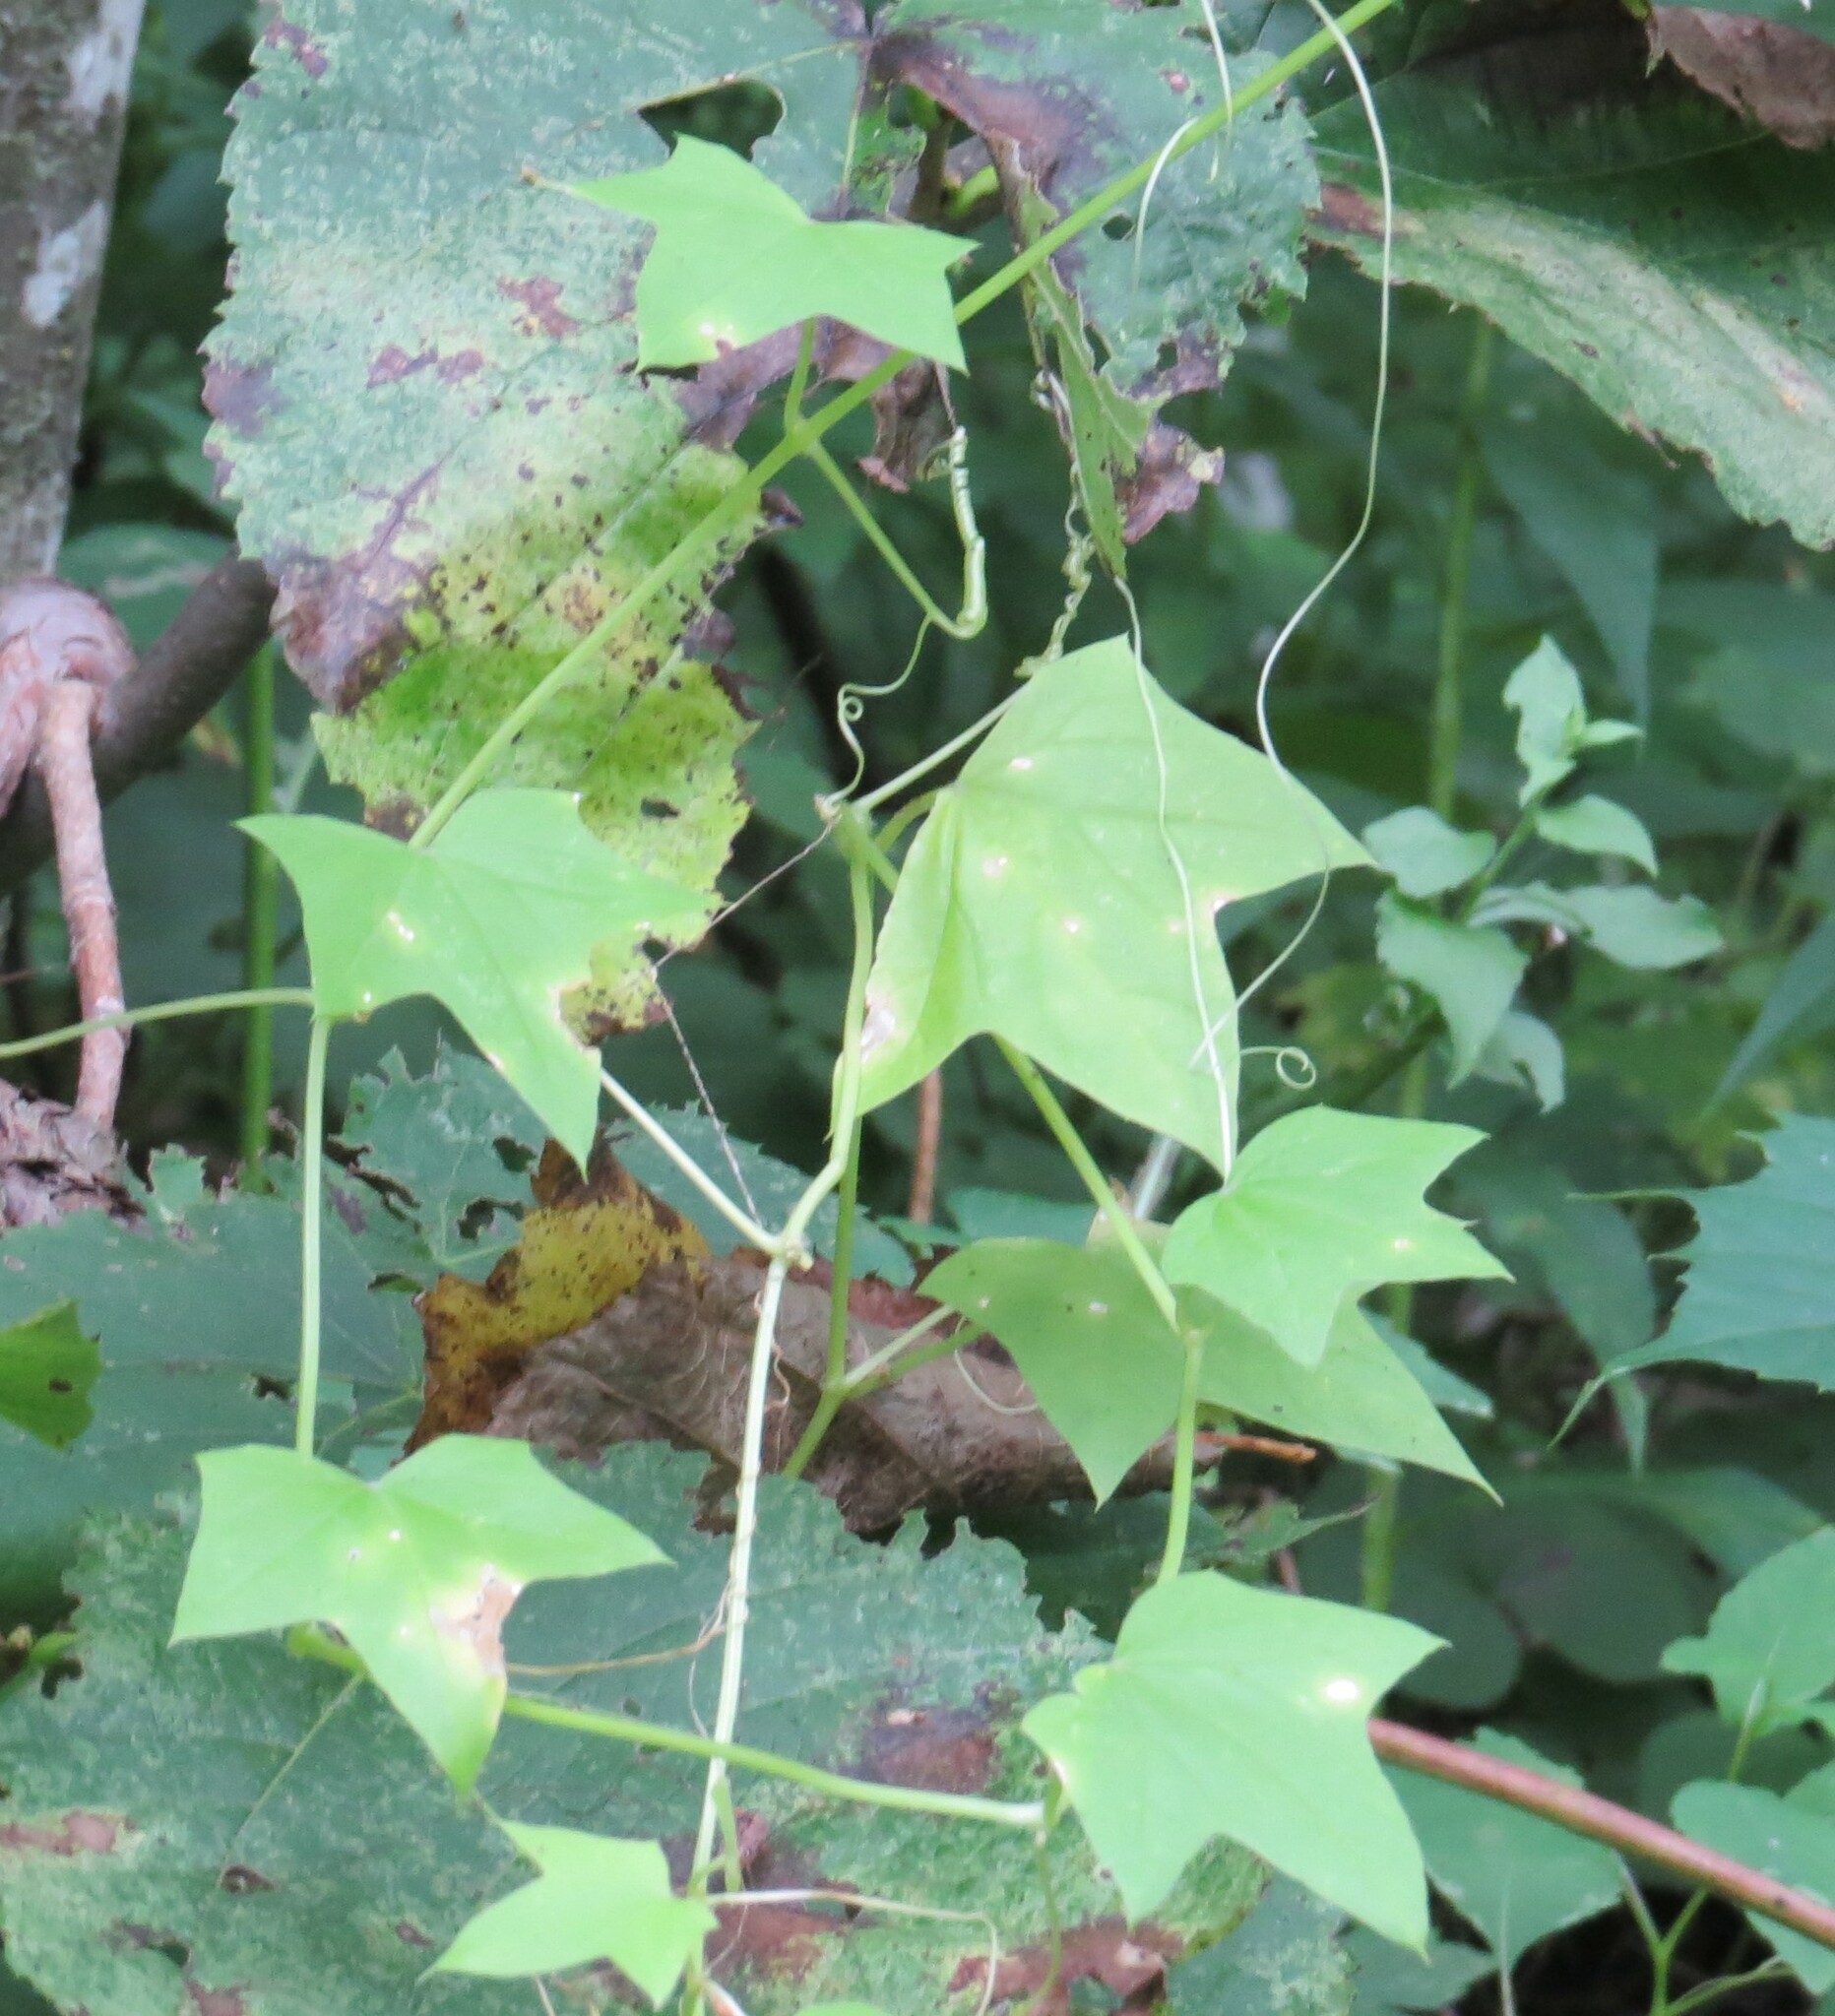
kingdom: Plantae
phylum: Tracheophyta
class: Magnoliopsida
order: Cucurbitales
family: Cucurbitaceae
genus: Echinocystis
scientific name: Echinocystis lobata
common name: Wild cucumber
